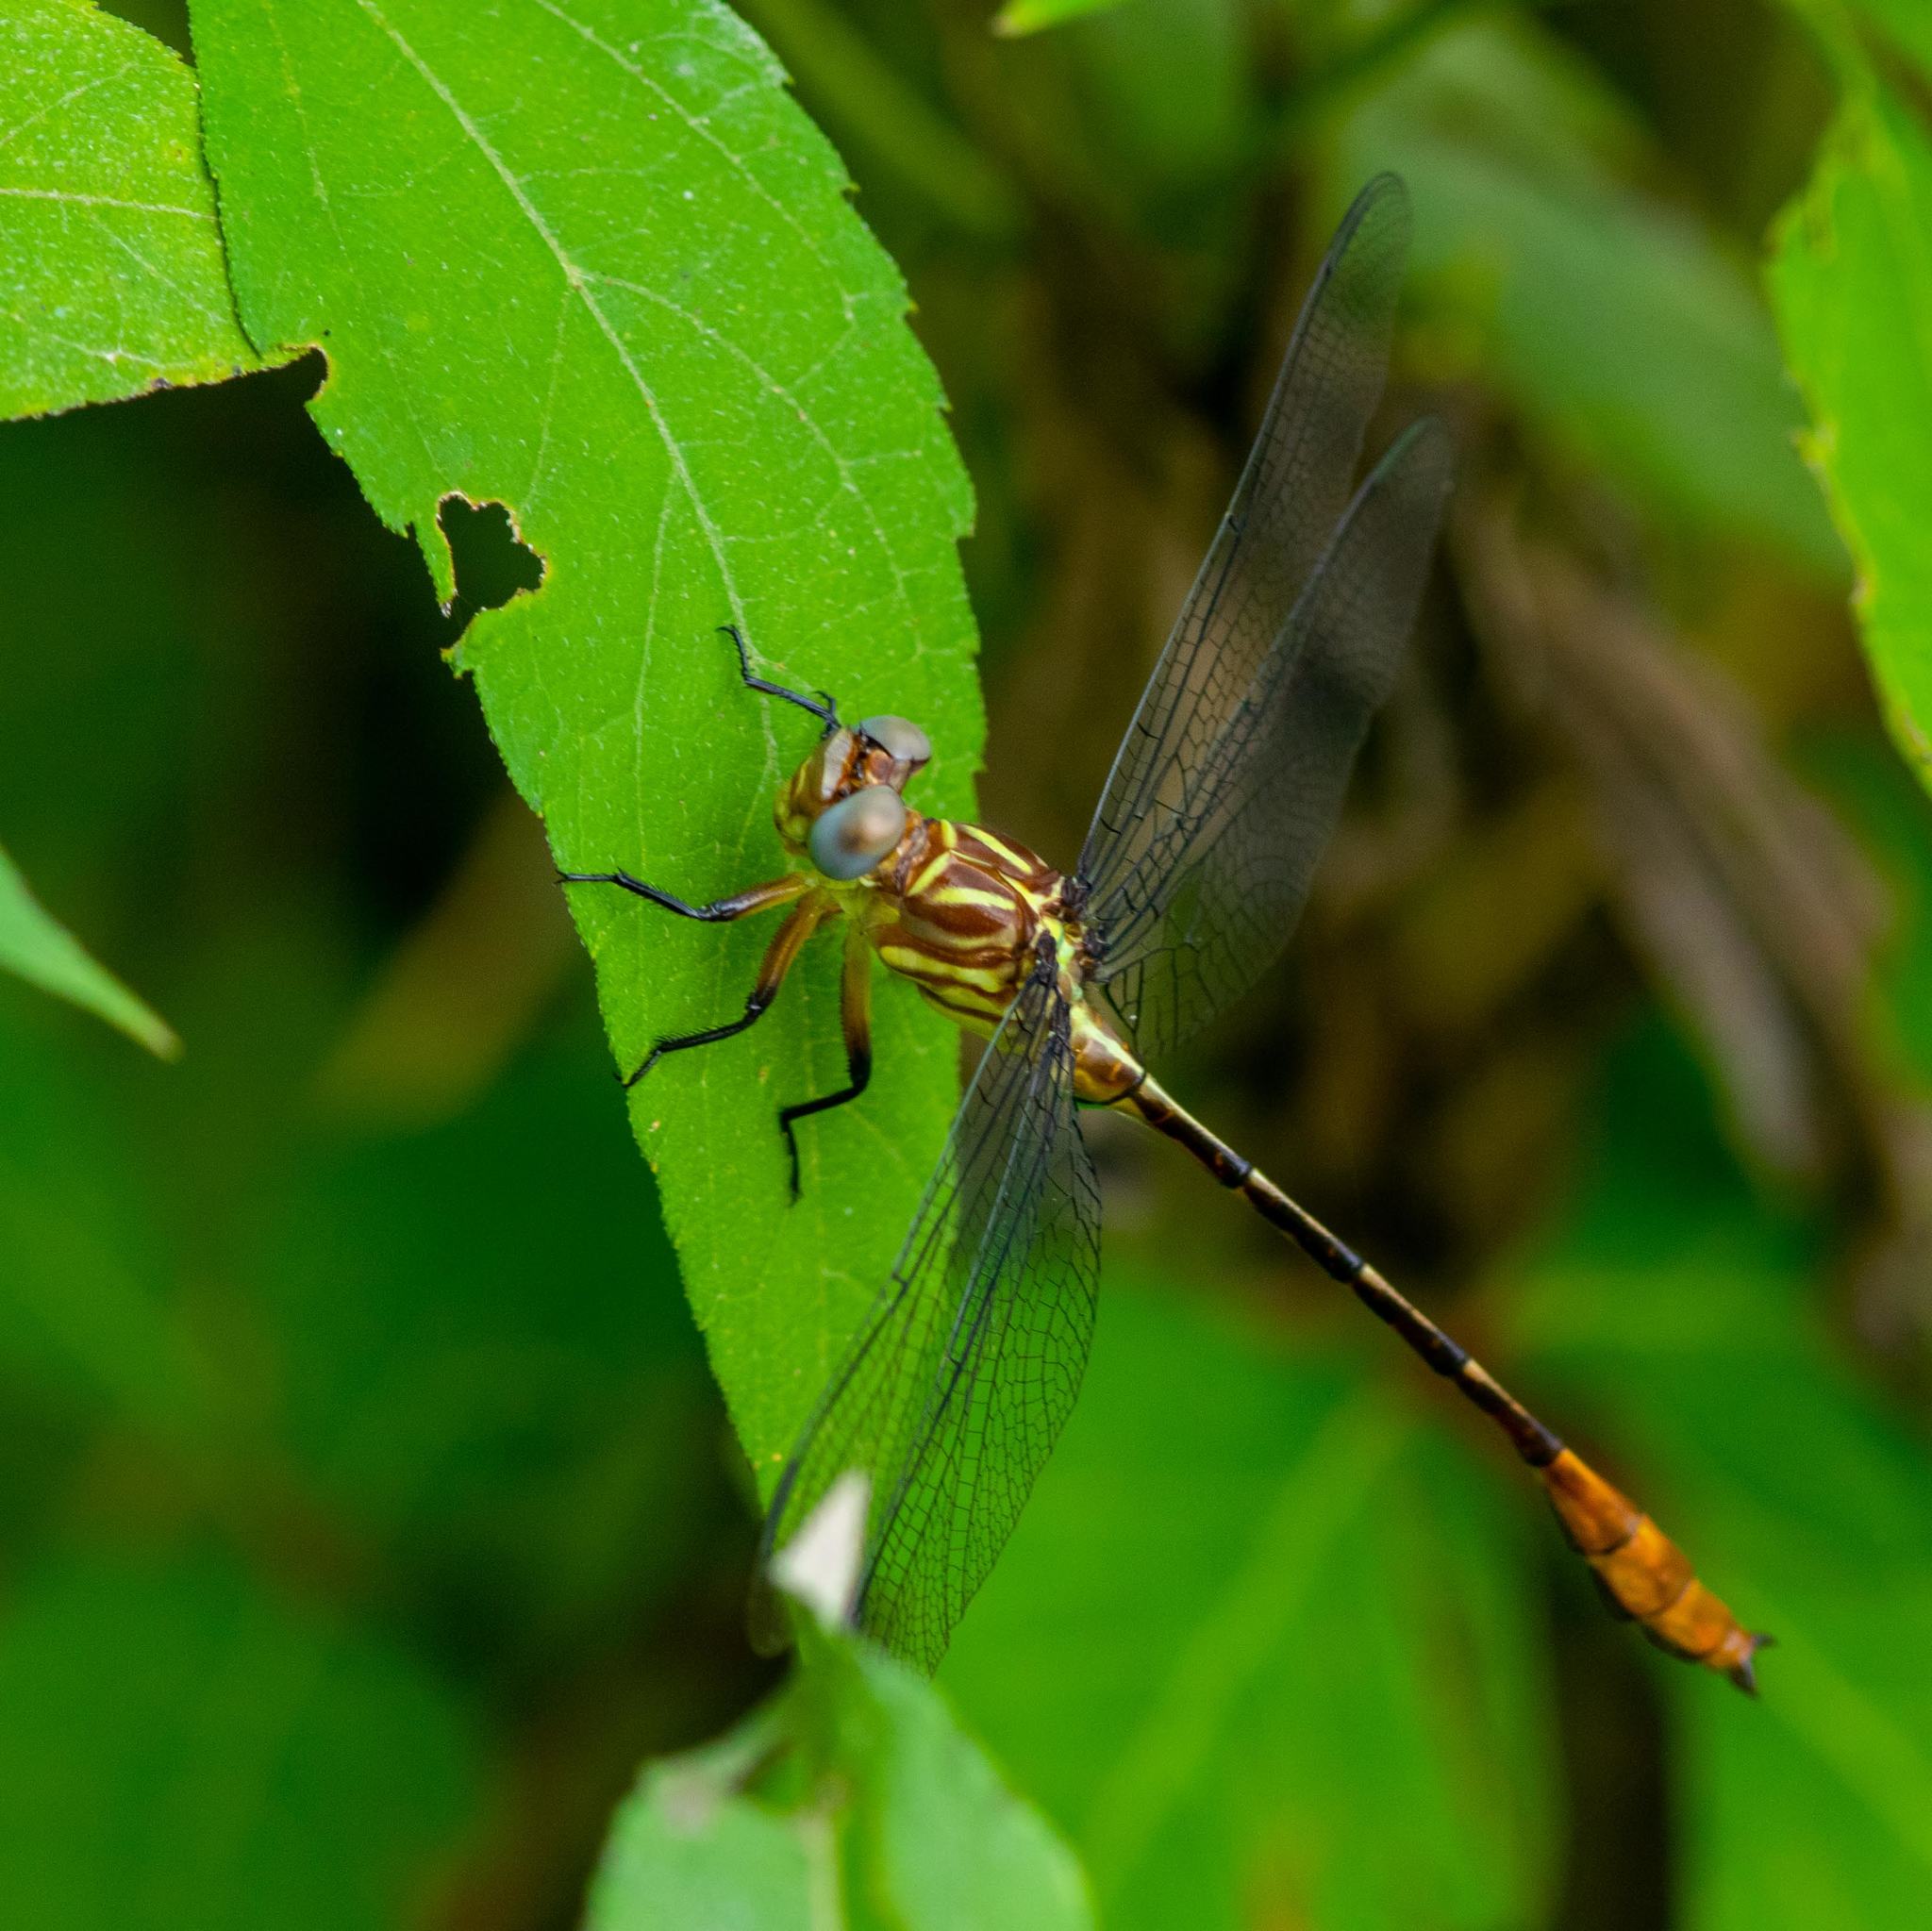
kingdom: Animalia
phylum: Arthropoda
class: Insecta
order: Odonata
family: Gomphidae
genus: Stylurus
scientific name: Stylurus plagiatus
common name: Russet-tipped clubtail
